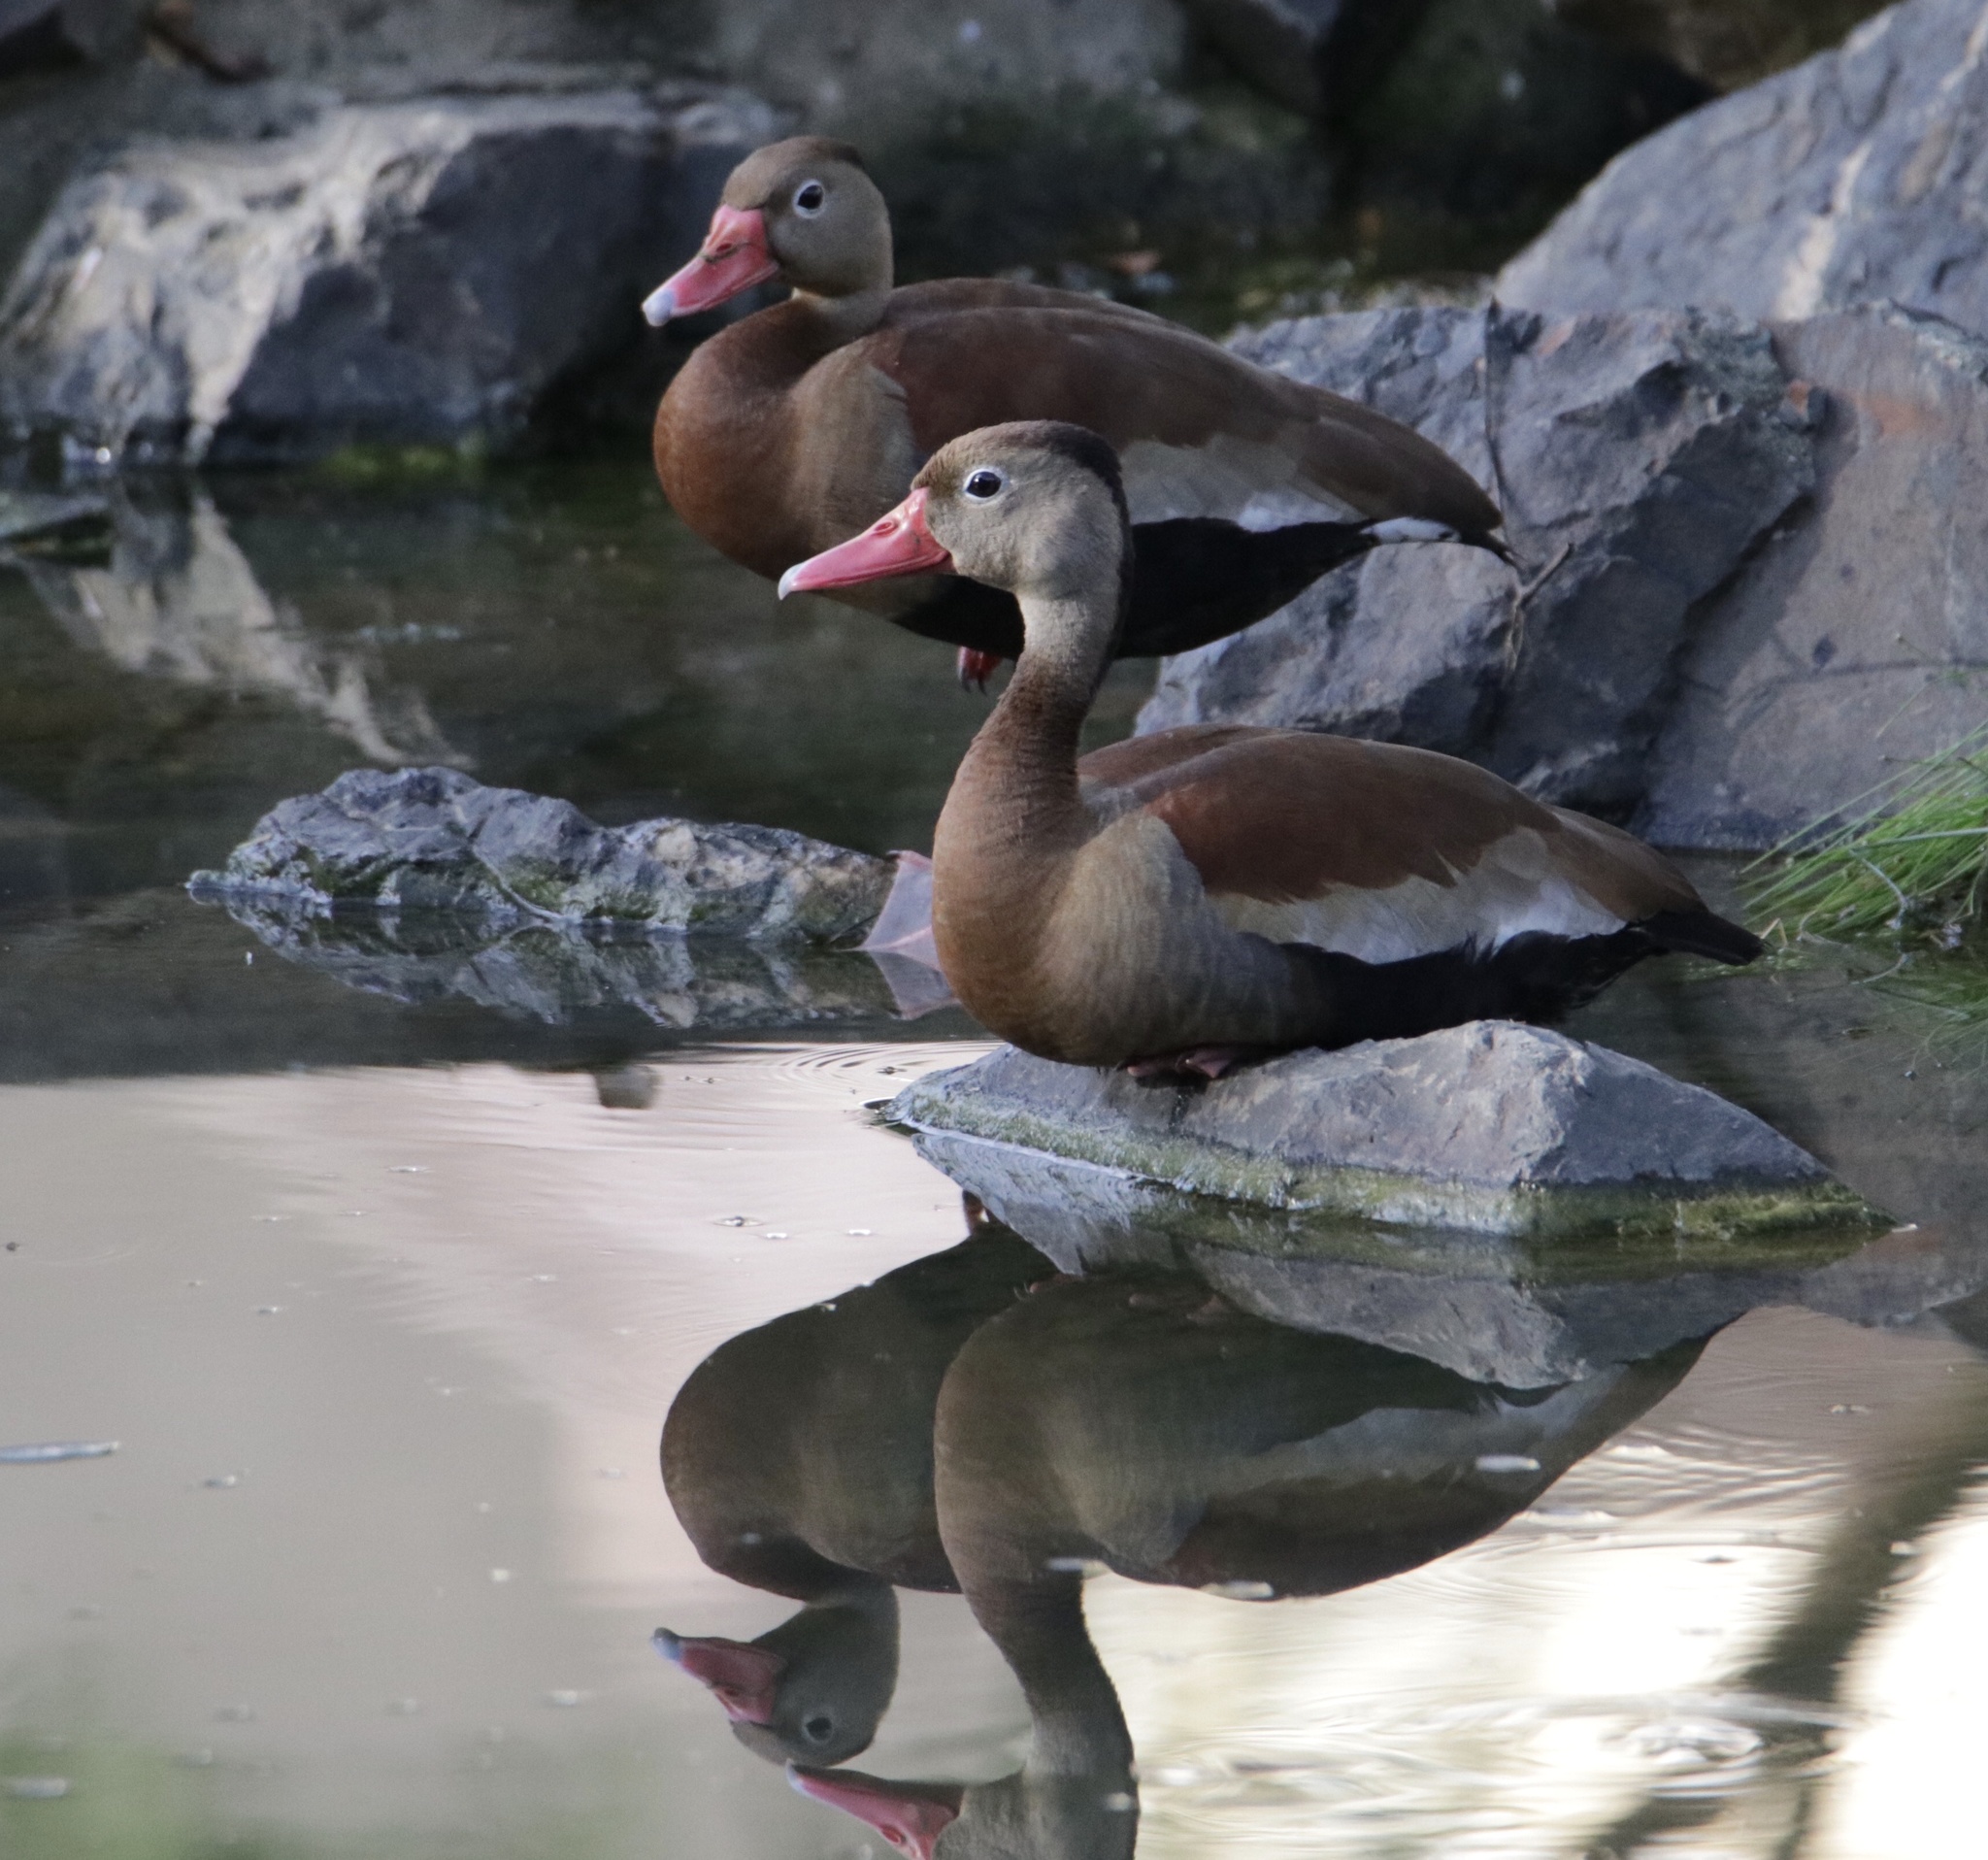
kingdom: Animalia
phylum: Chordata
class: Aves
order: Anseriformes
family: Anatidae
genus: Dendrocygna
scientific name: Dendrocygna autumnalis
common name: Black-bellied whistling duck
